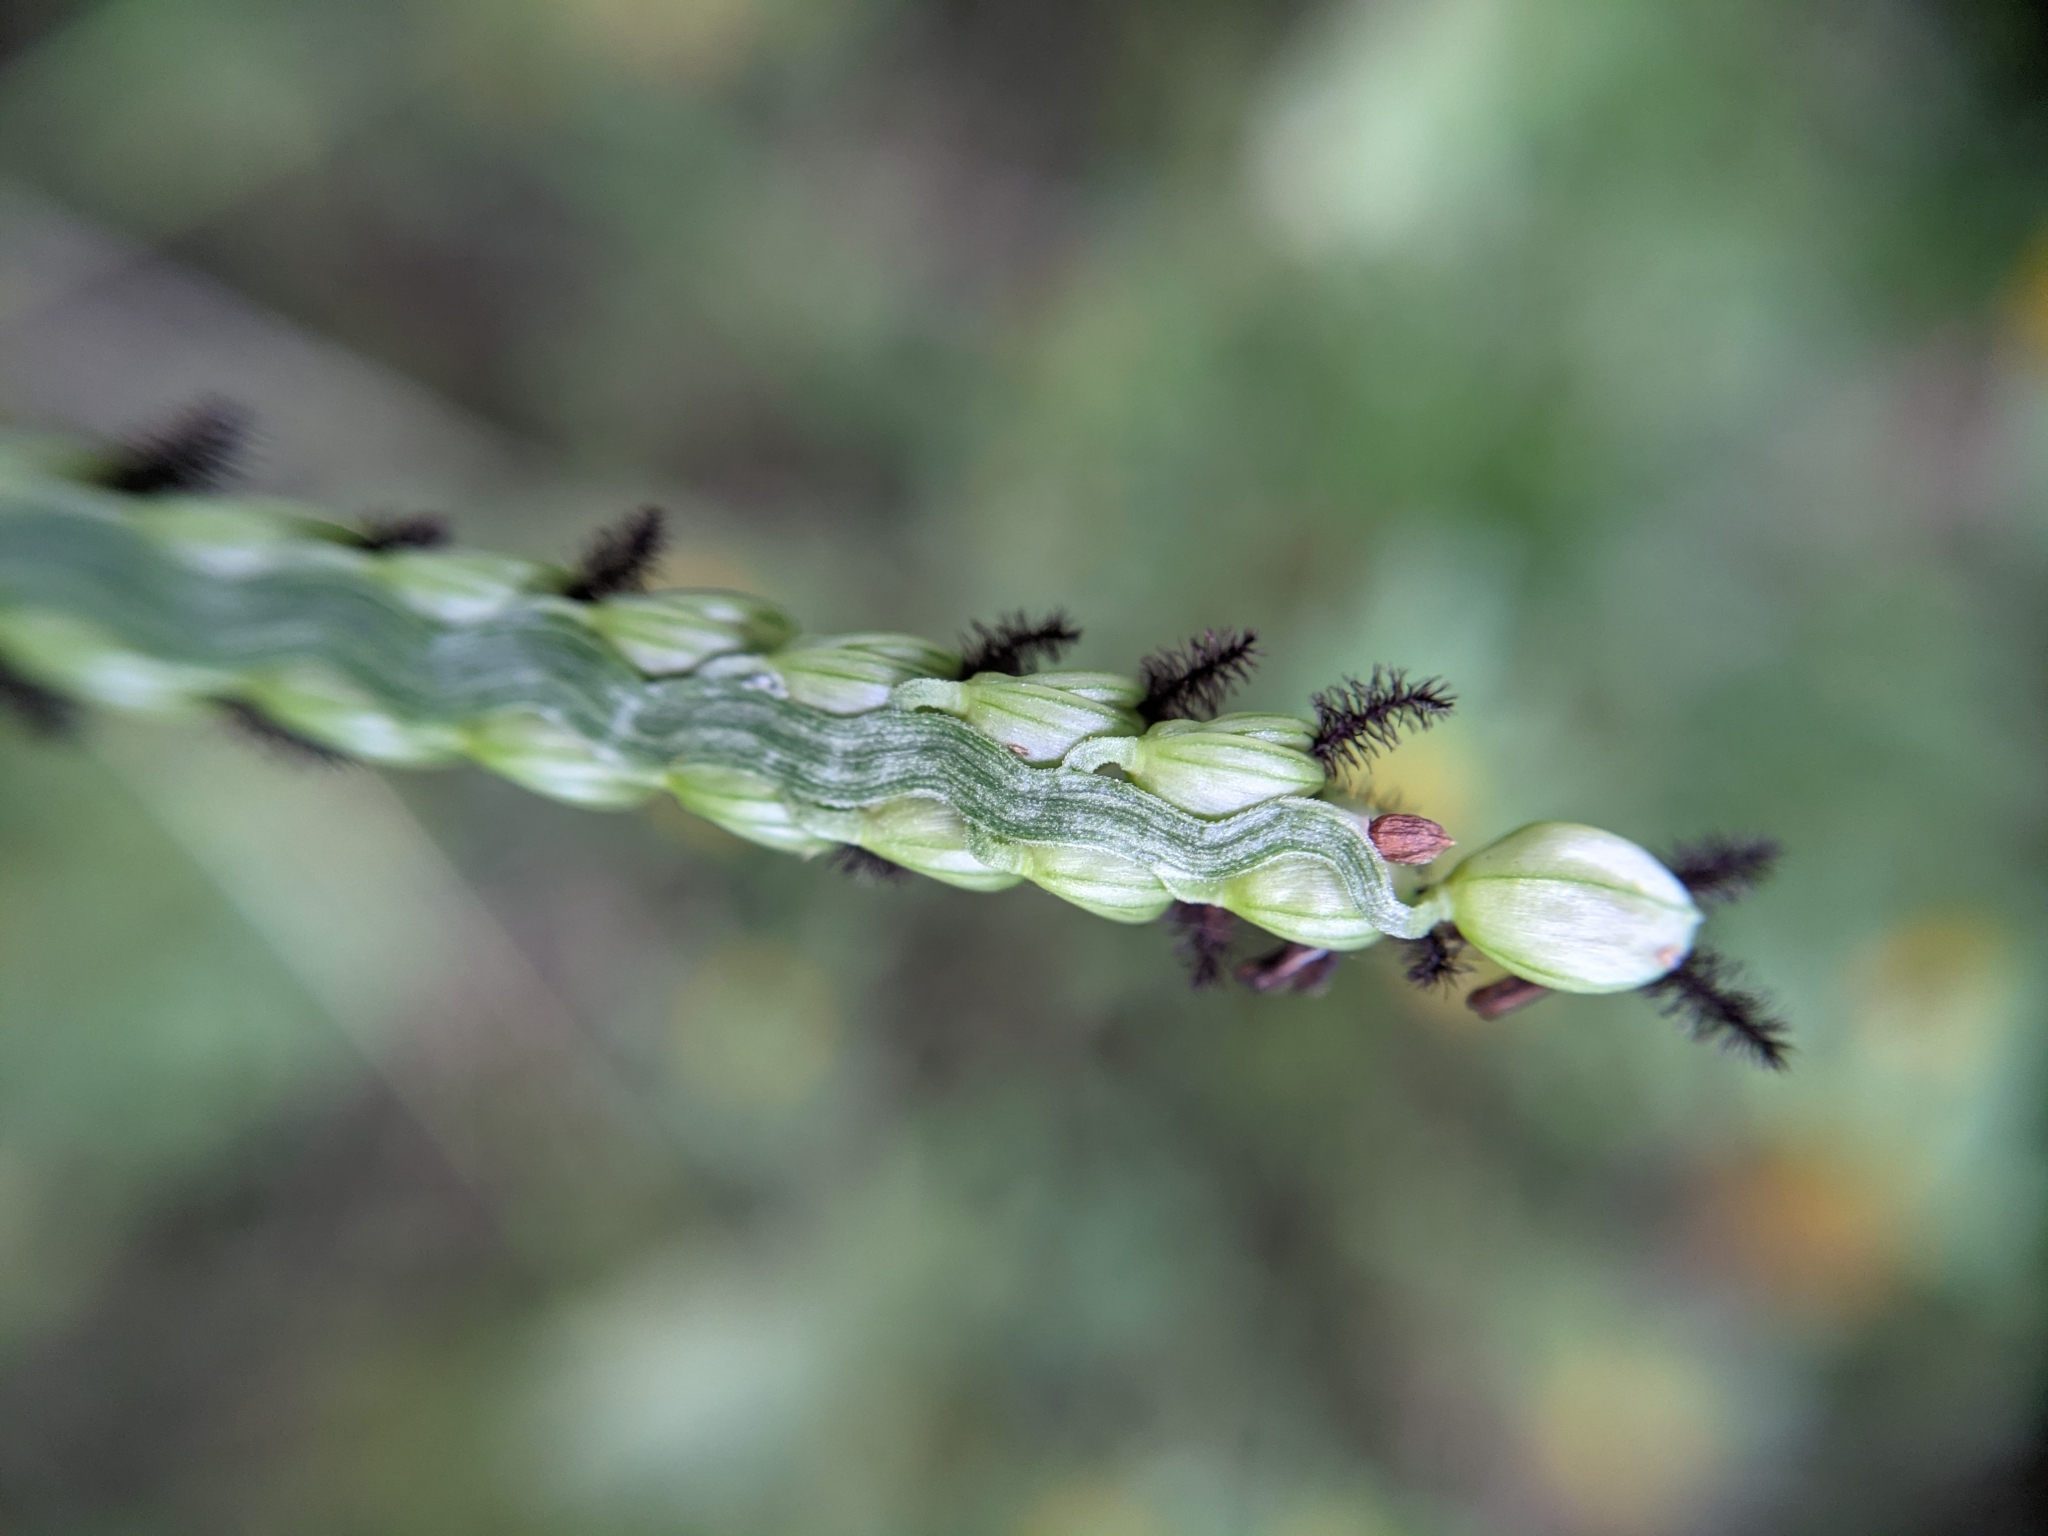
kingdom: Plantae
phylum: Tracheophyta
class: Liliopsida
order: Poales
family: Poaceae
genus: Paspalum
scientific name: Paspalum floridanum
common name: Florida paspalum
